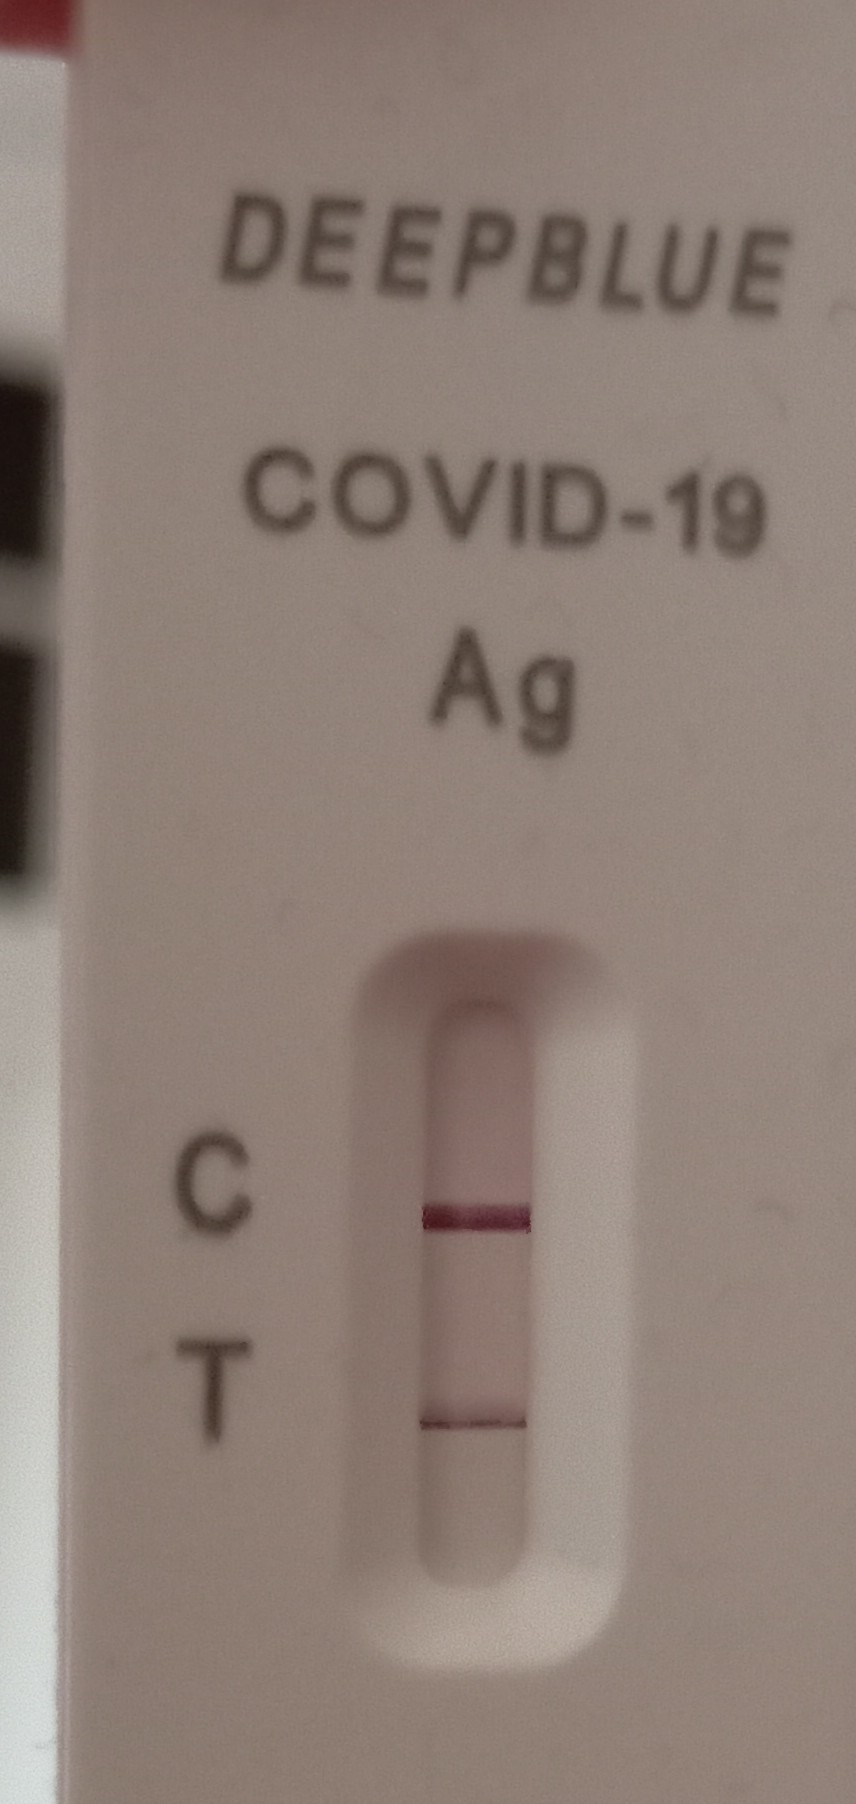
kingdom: Viruses
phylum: Pisuviricota
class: Pisoniviricetes
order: Nidovirales
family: Coronaviridae
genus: Betacoronavirus
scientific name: Betacoronavirus
